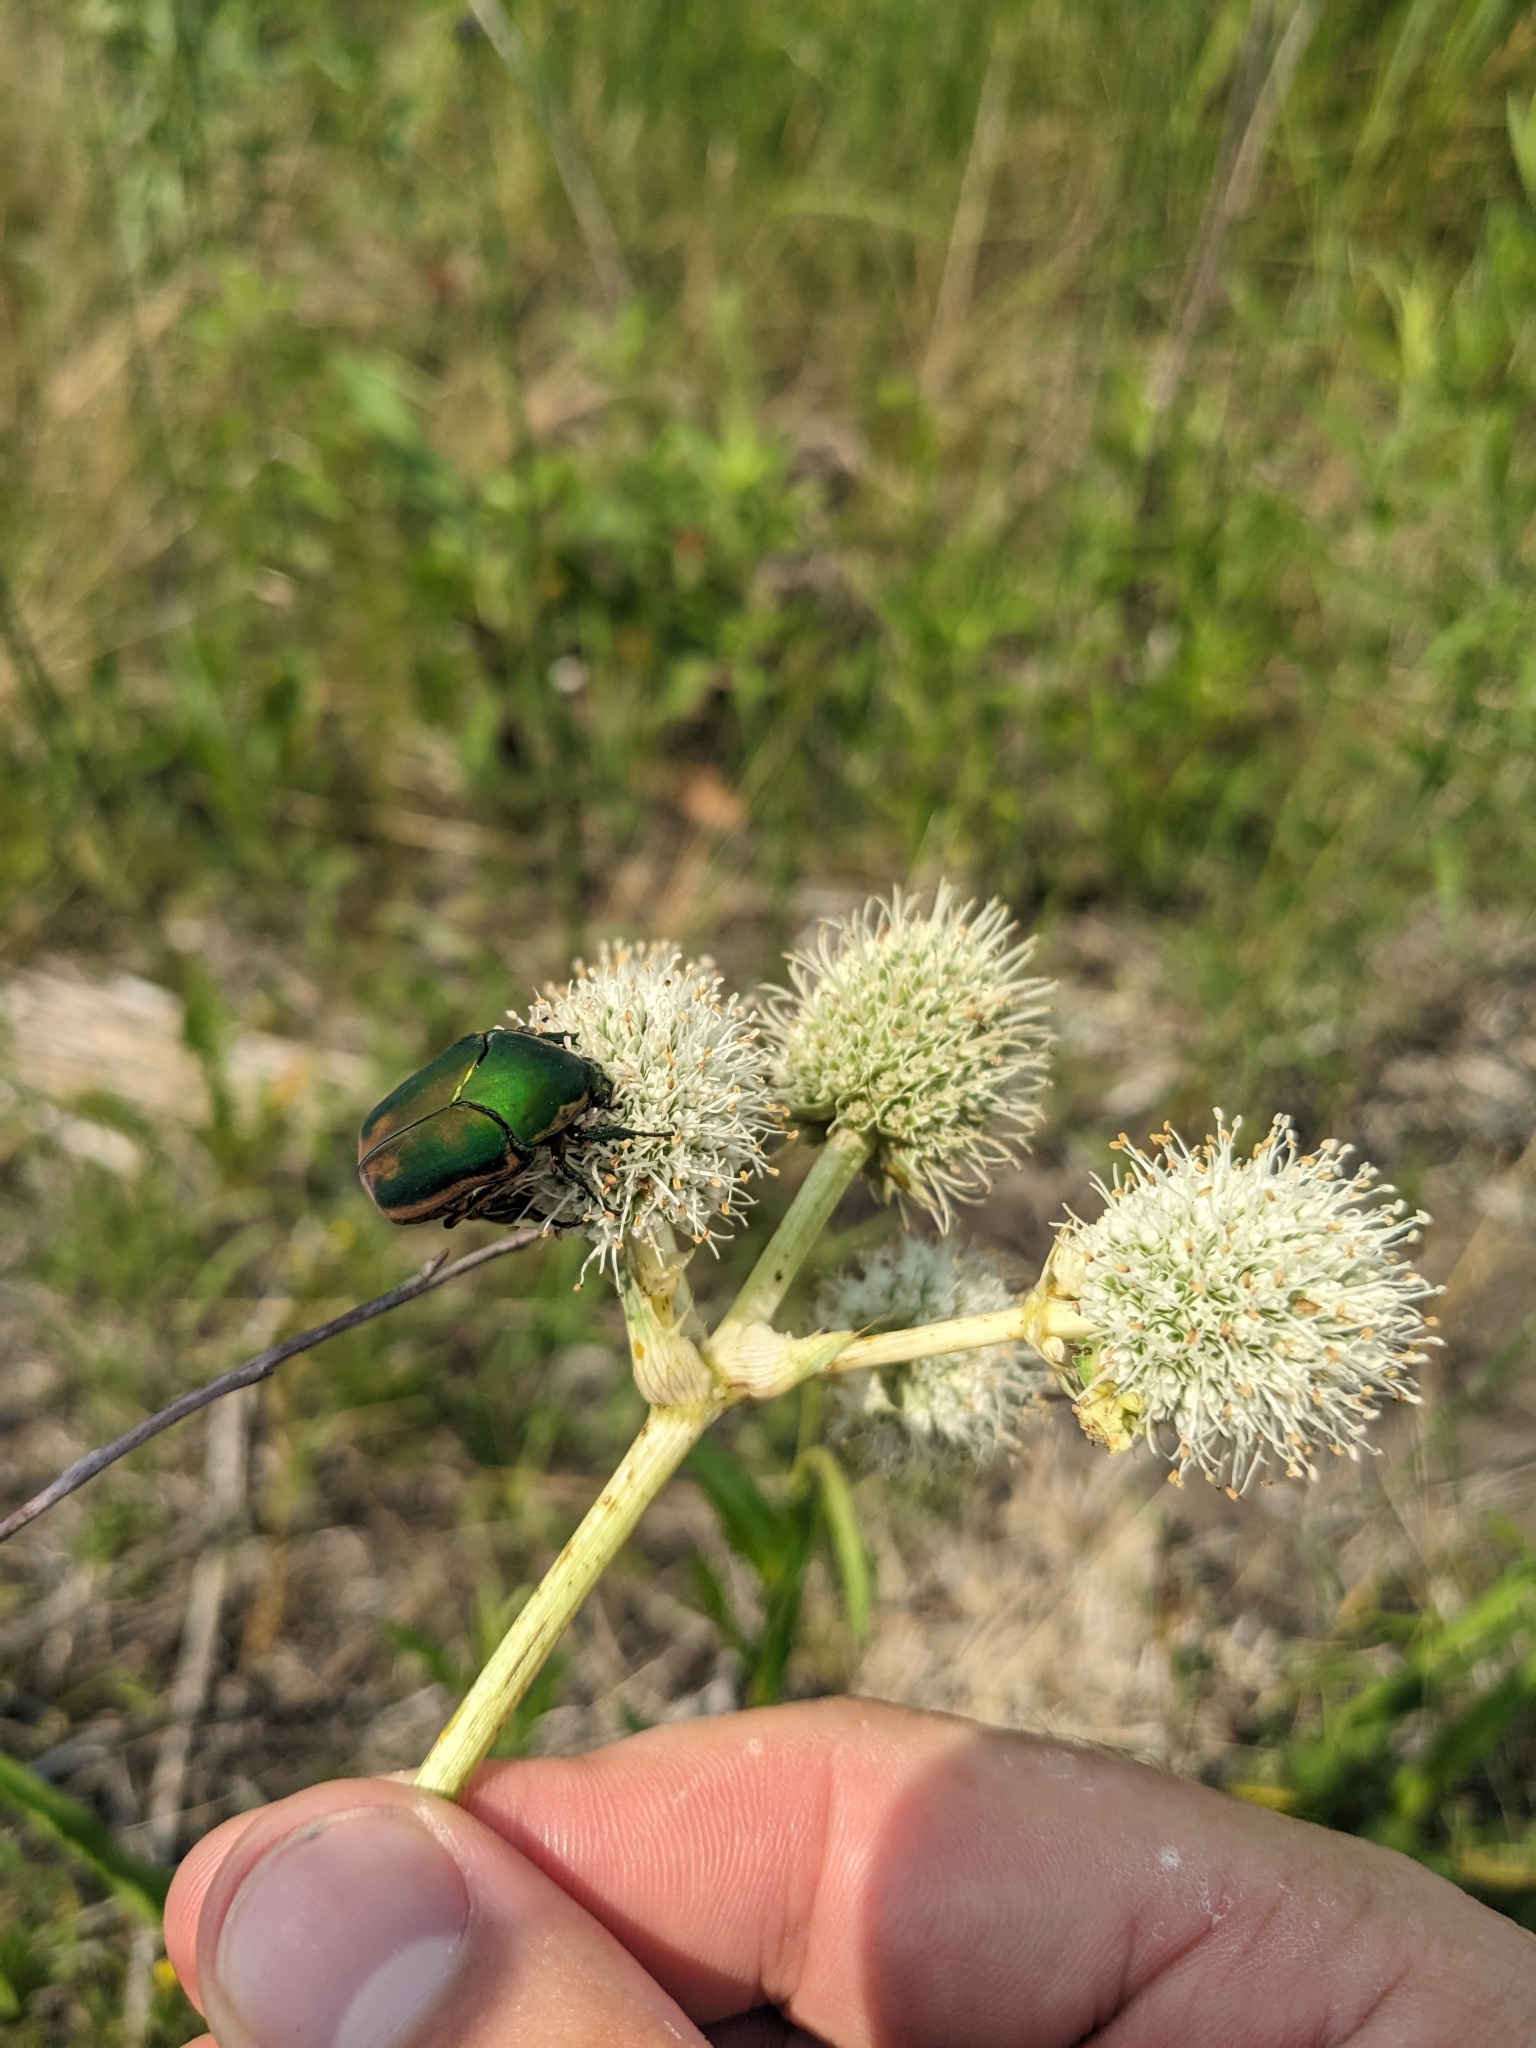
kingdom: Animalia
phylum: Arthropoda
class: Insecta
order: Coleoptera
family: Scarabaeidae
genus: Cotinis
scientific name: Cotinis nitida
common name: Common green june beetle
